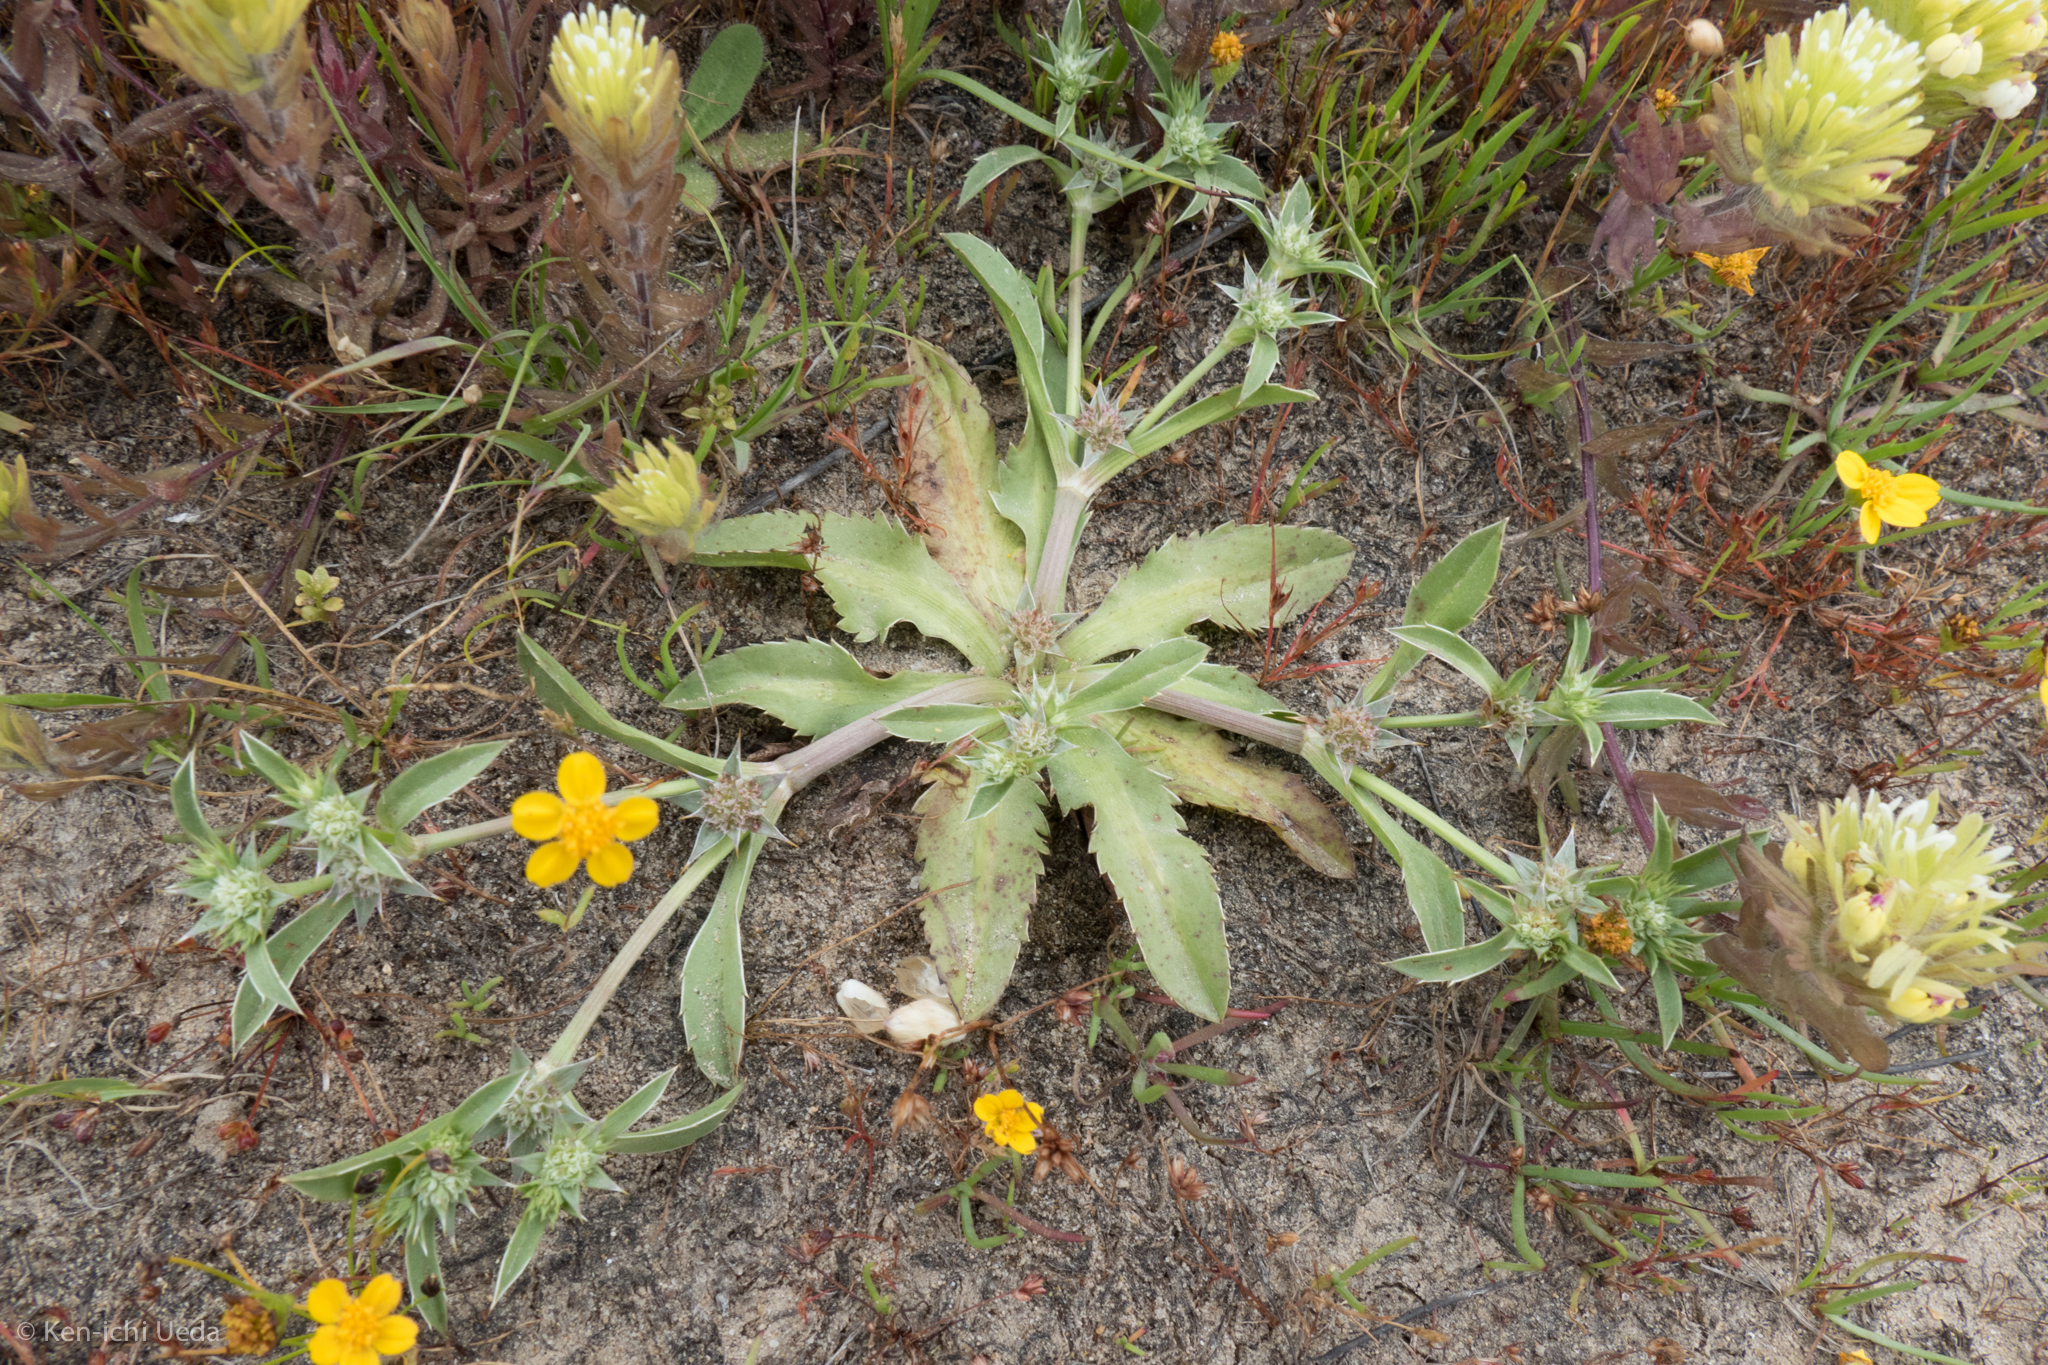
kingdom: Plantae
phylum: Tracheophyta
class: Magnoliopsida
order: Apiales
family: Apiaceae
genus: Eryngium
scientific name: Eryngium armatum
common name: Coyote thistle
